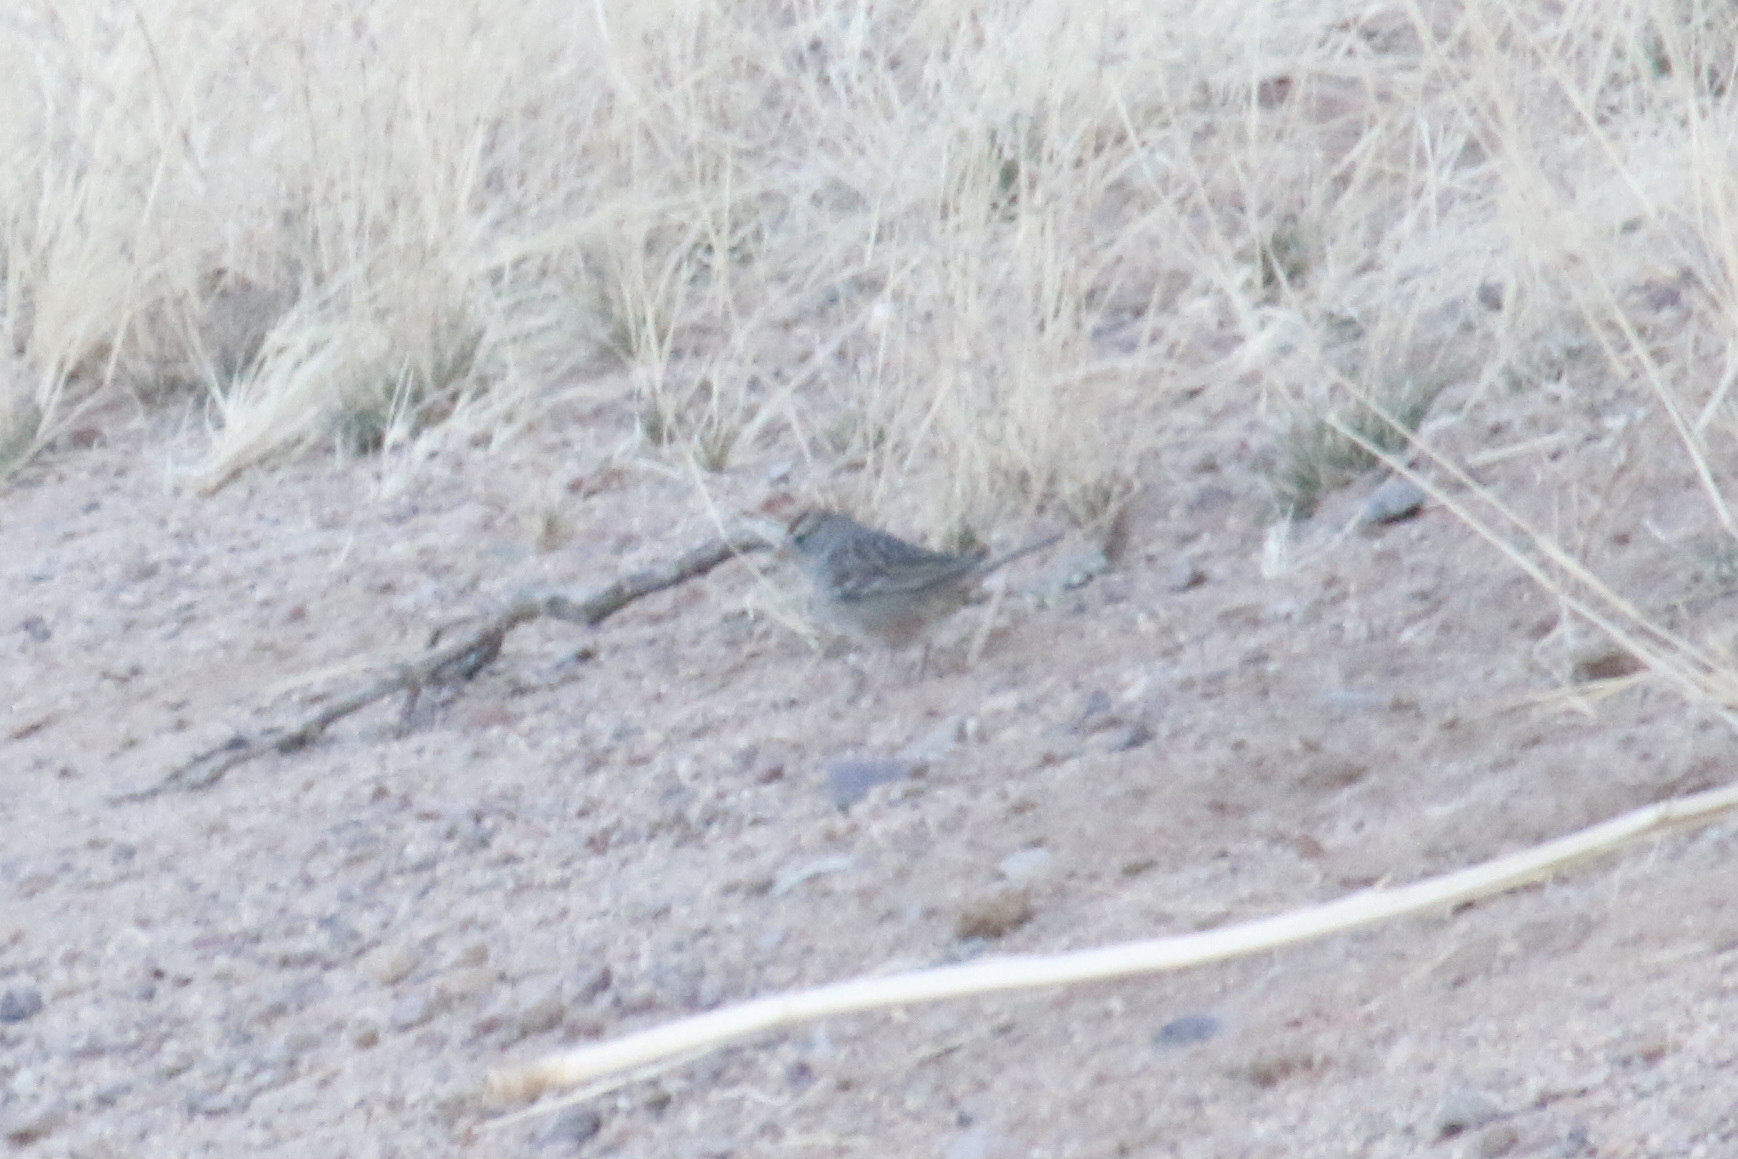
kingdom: Animalia
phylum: Chordata
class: Aves
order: Passeriformes
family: Passerellidae
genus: Zonotrichia
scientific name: Zonotrichia leucophrys
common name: White-crowned sparrow
